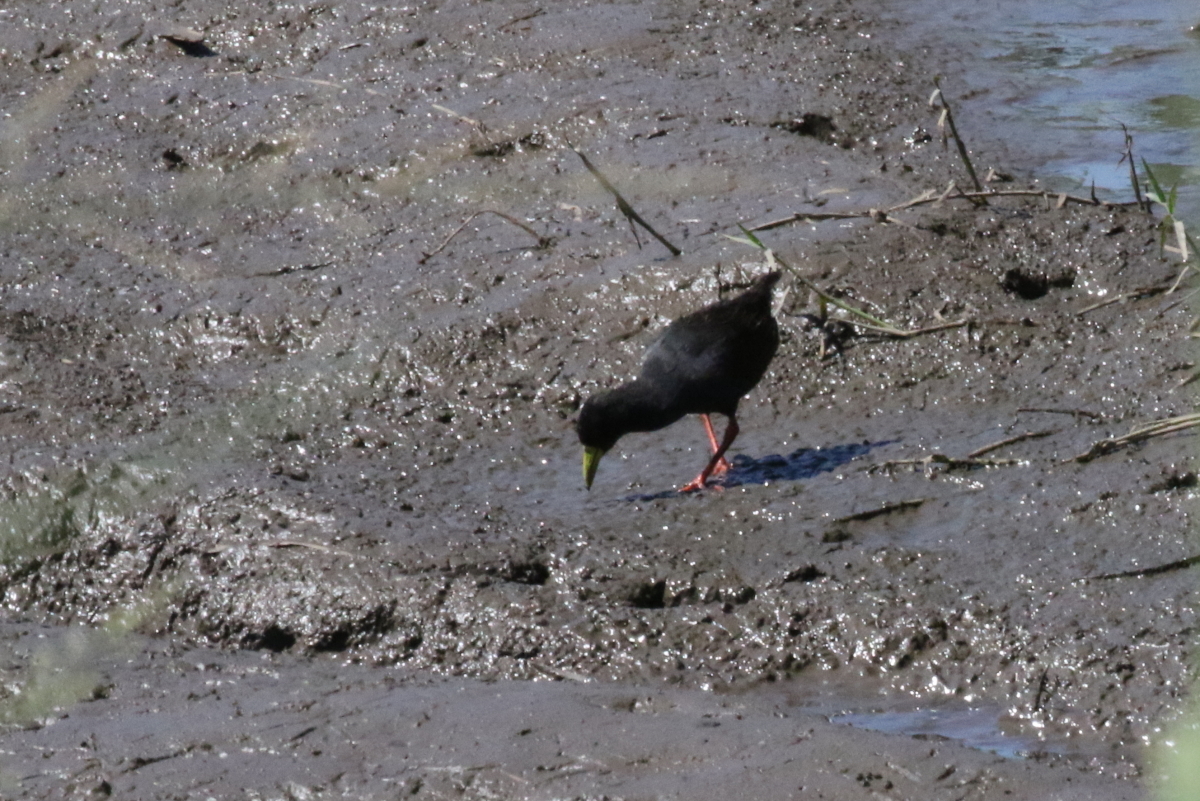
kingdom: Animalia
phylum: Chordata
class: Aves
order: Gruiformes
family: Rallidae
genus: Amaurornis
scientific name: Amaurornis flavirostra
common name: Black crake
